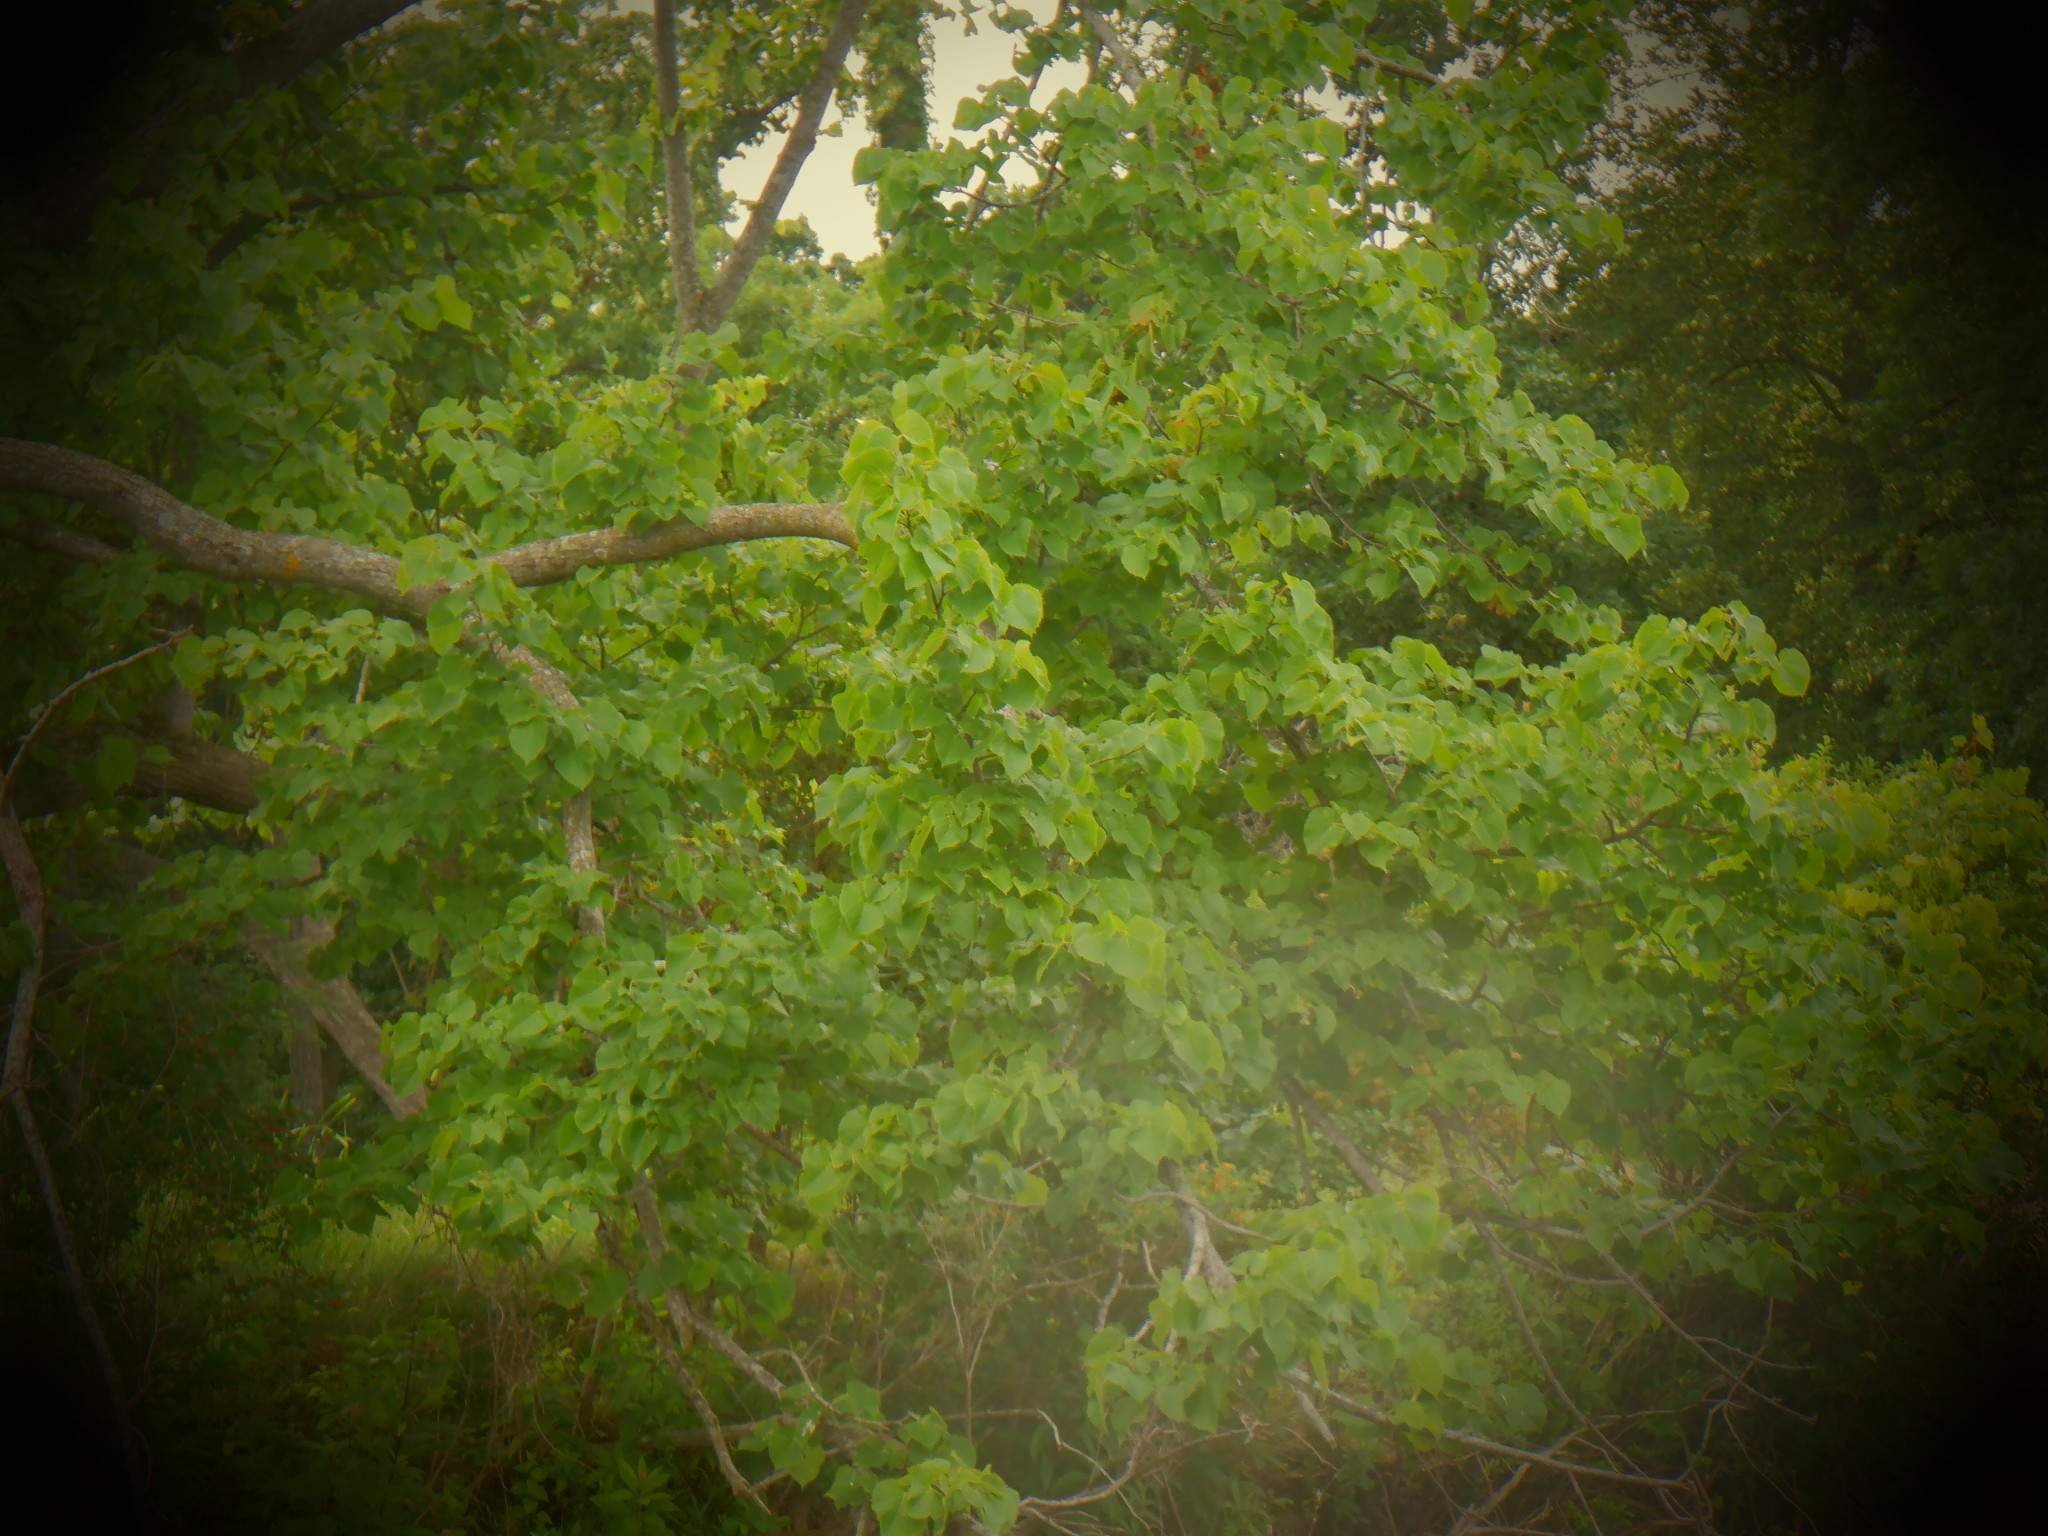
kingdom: Plantae
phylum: Tracheophyta
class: Magnoliopsida
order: Malvales
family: Malvaceae
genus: Tilia
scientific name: Tilia americana
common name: Basswood
